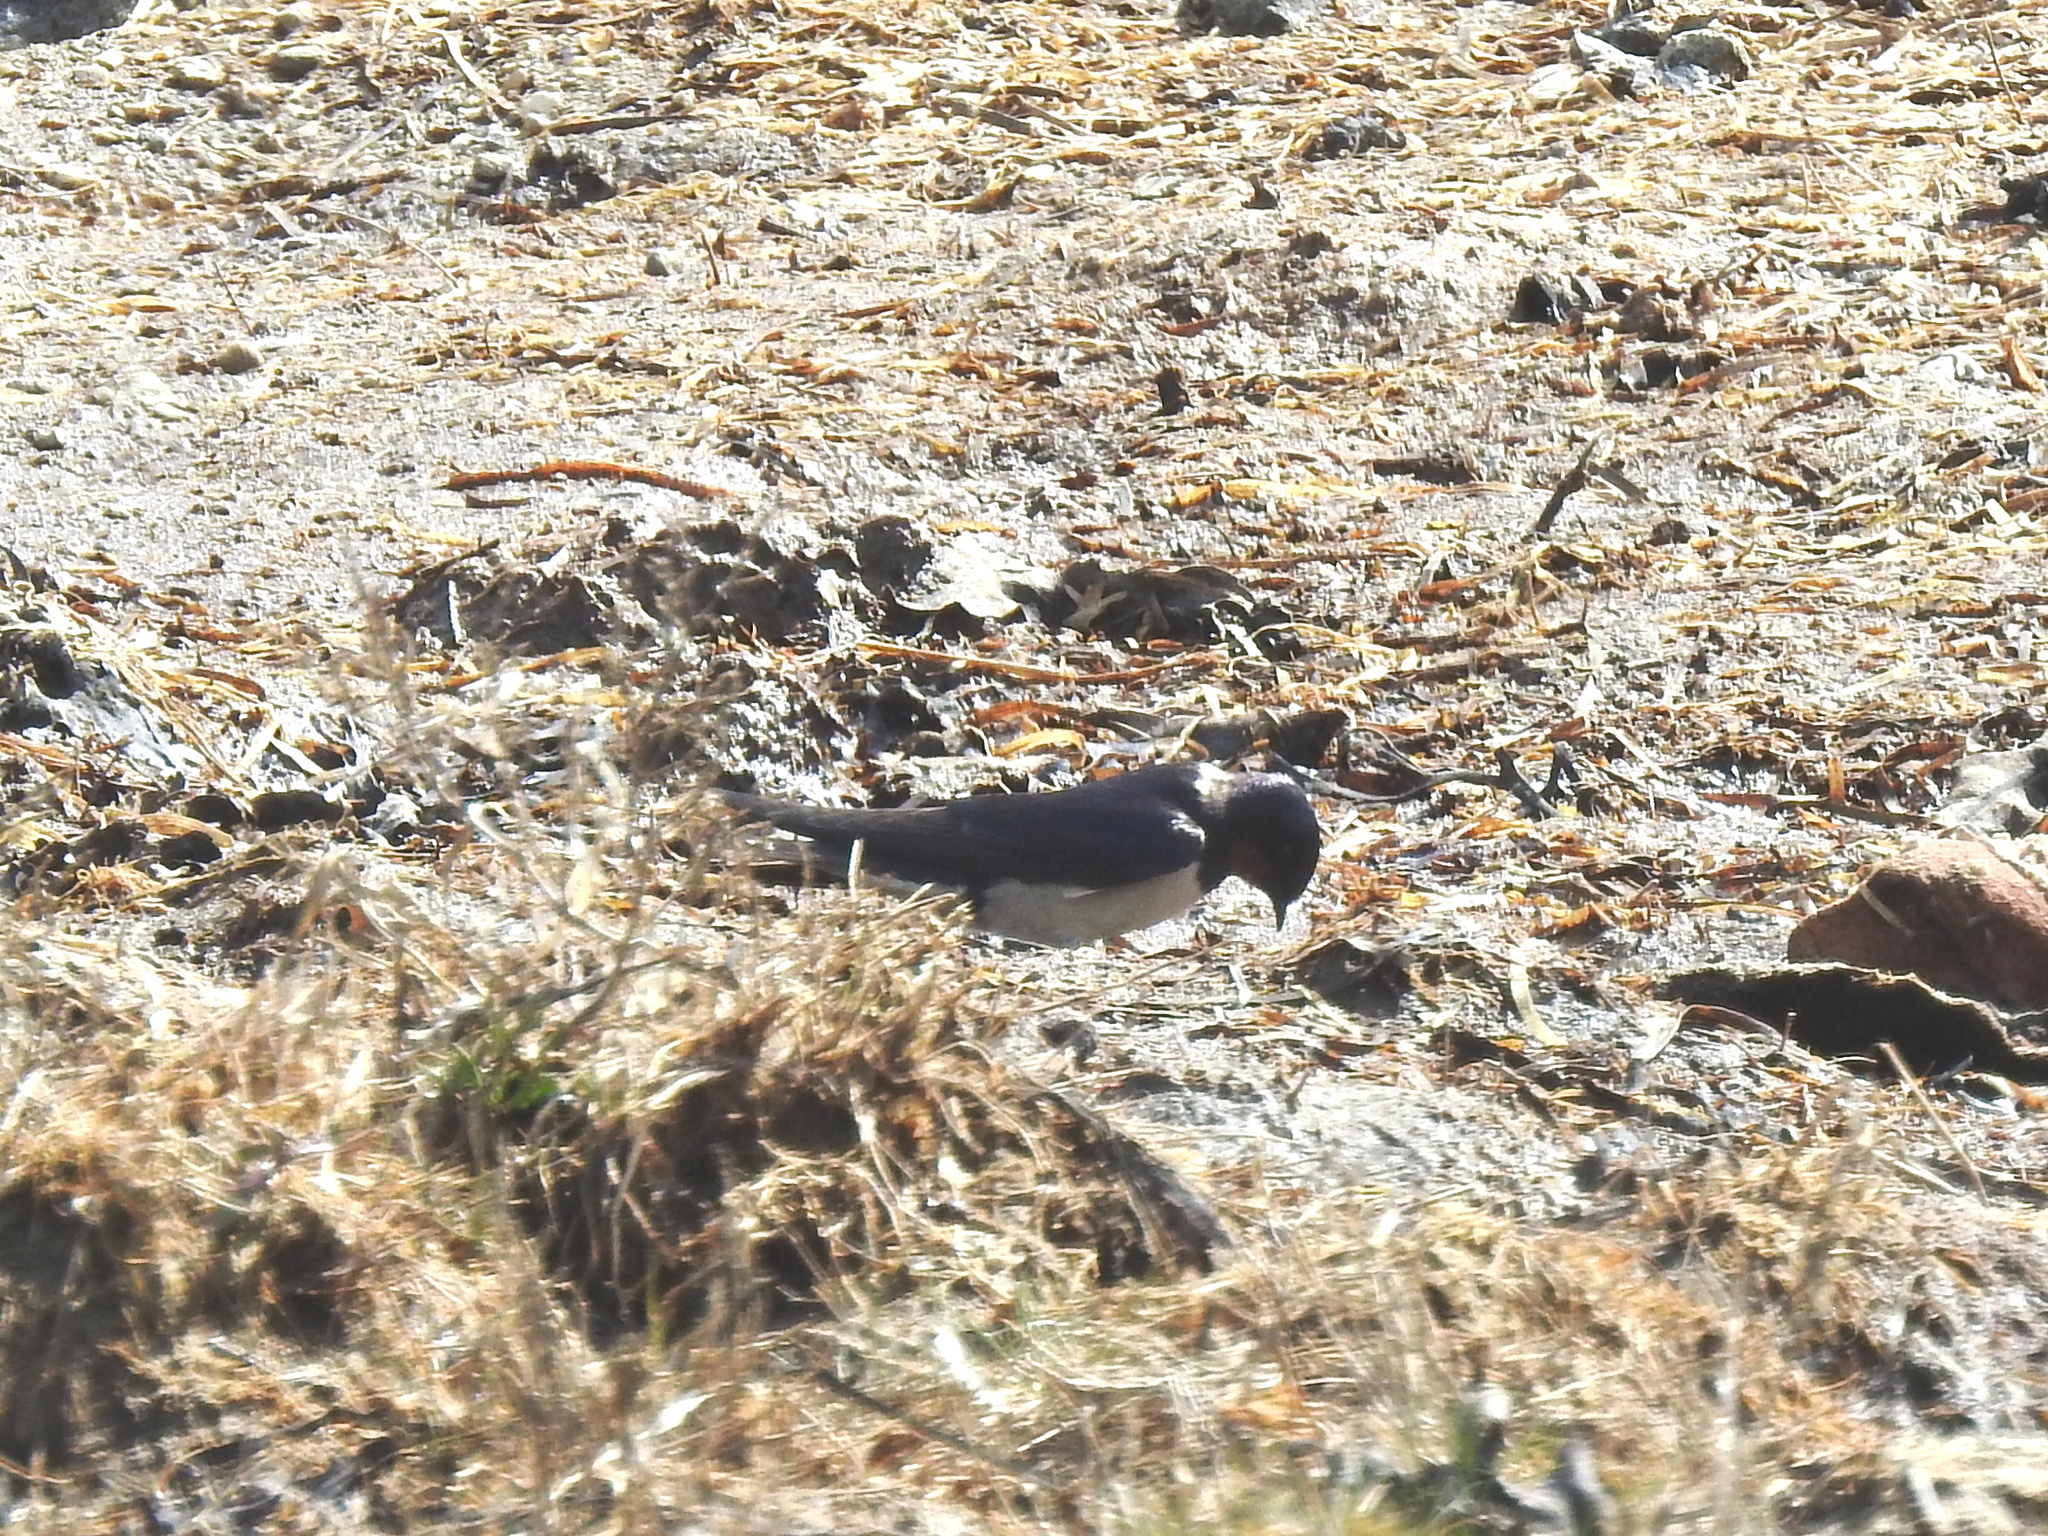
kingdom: Animalia
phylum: Chordata
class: Aves
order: Passeriformes
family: Hirundinidae
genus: Hirundo
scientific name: Hirundo rustica
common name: Barn swallow
